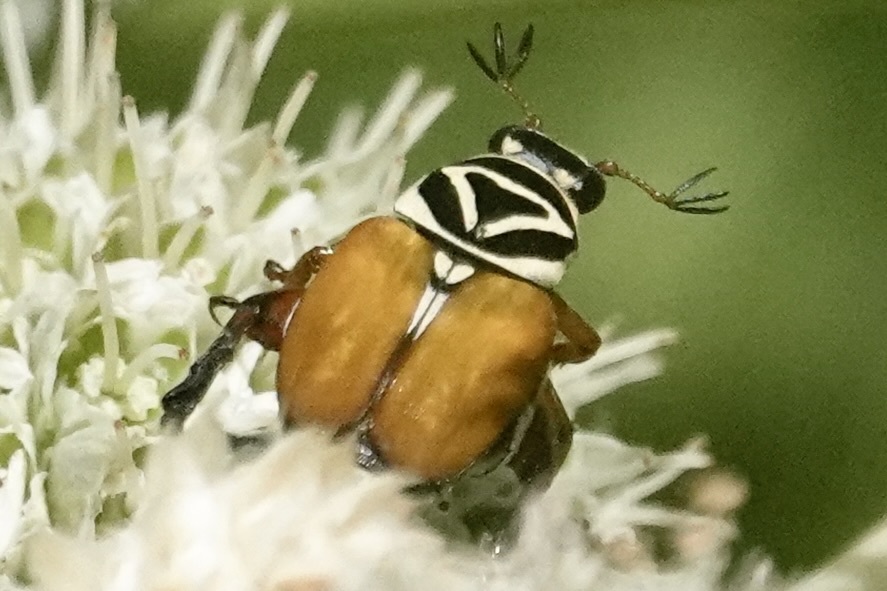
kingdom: Animalia
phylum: Arthropoda
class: Insecta
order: Coleoptera
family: Scarabaeidae
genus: Trigonopeltastes
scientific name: Trigonopeltastes delta
